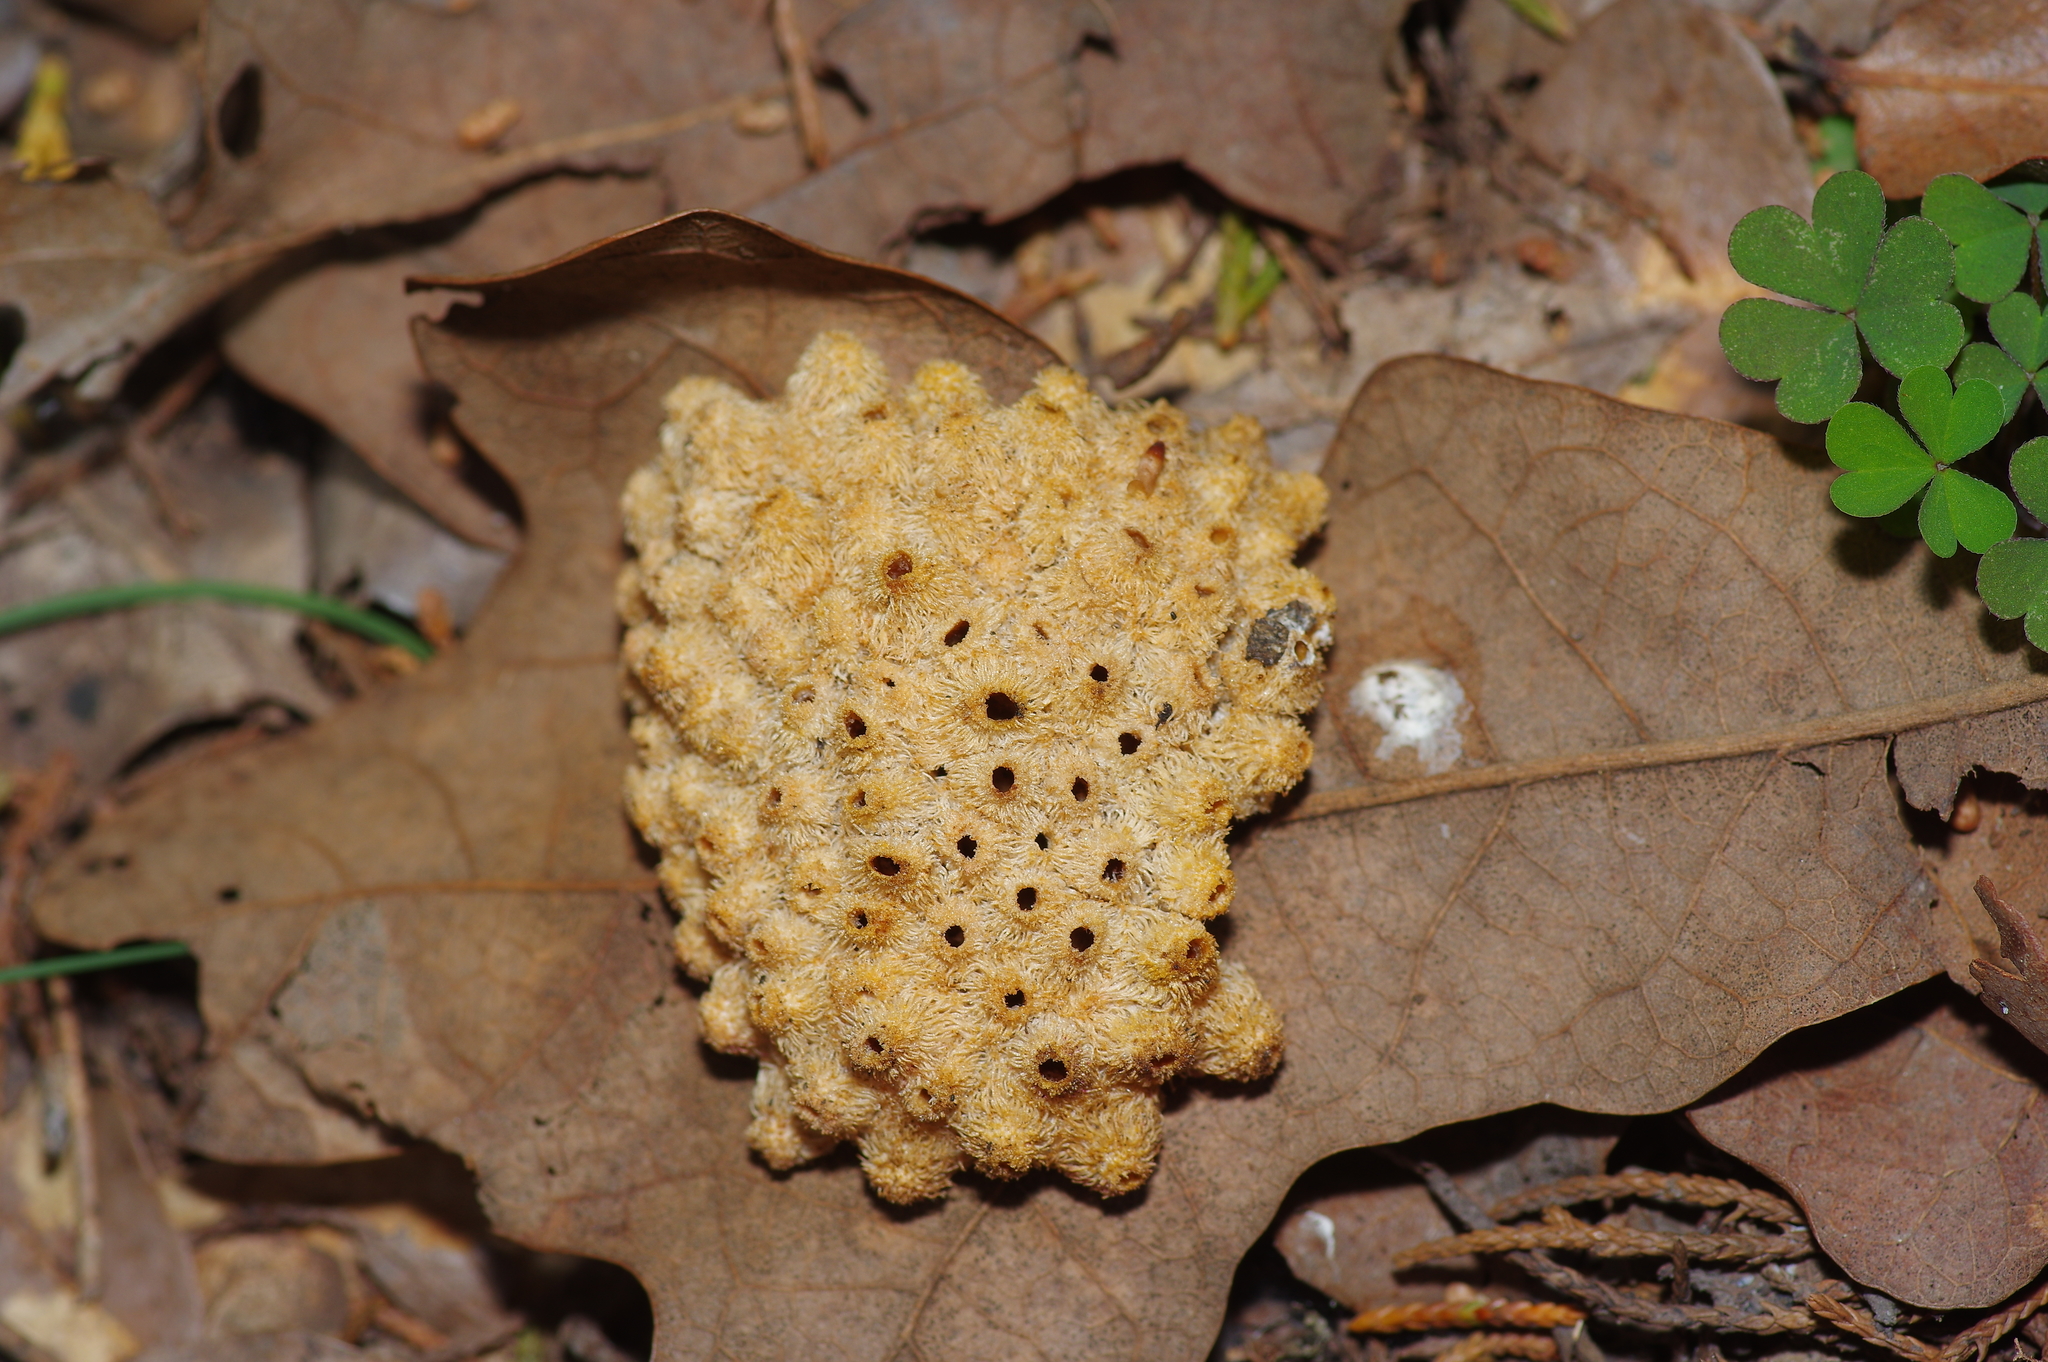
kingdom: Animalia
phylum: Arthropoda
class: Insecta
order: Hymenoptera
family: Cynipidae
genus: Andricus
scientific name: Andricus
